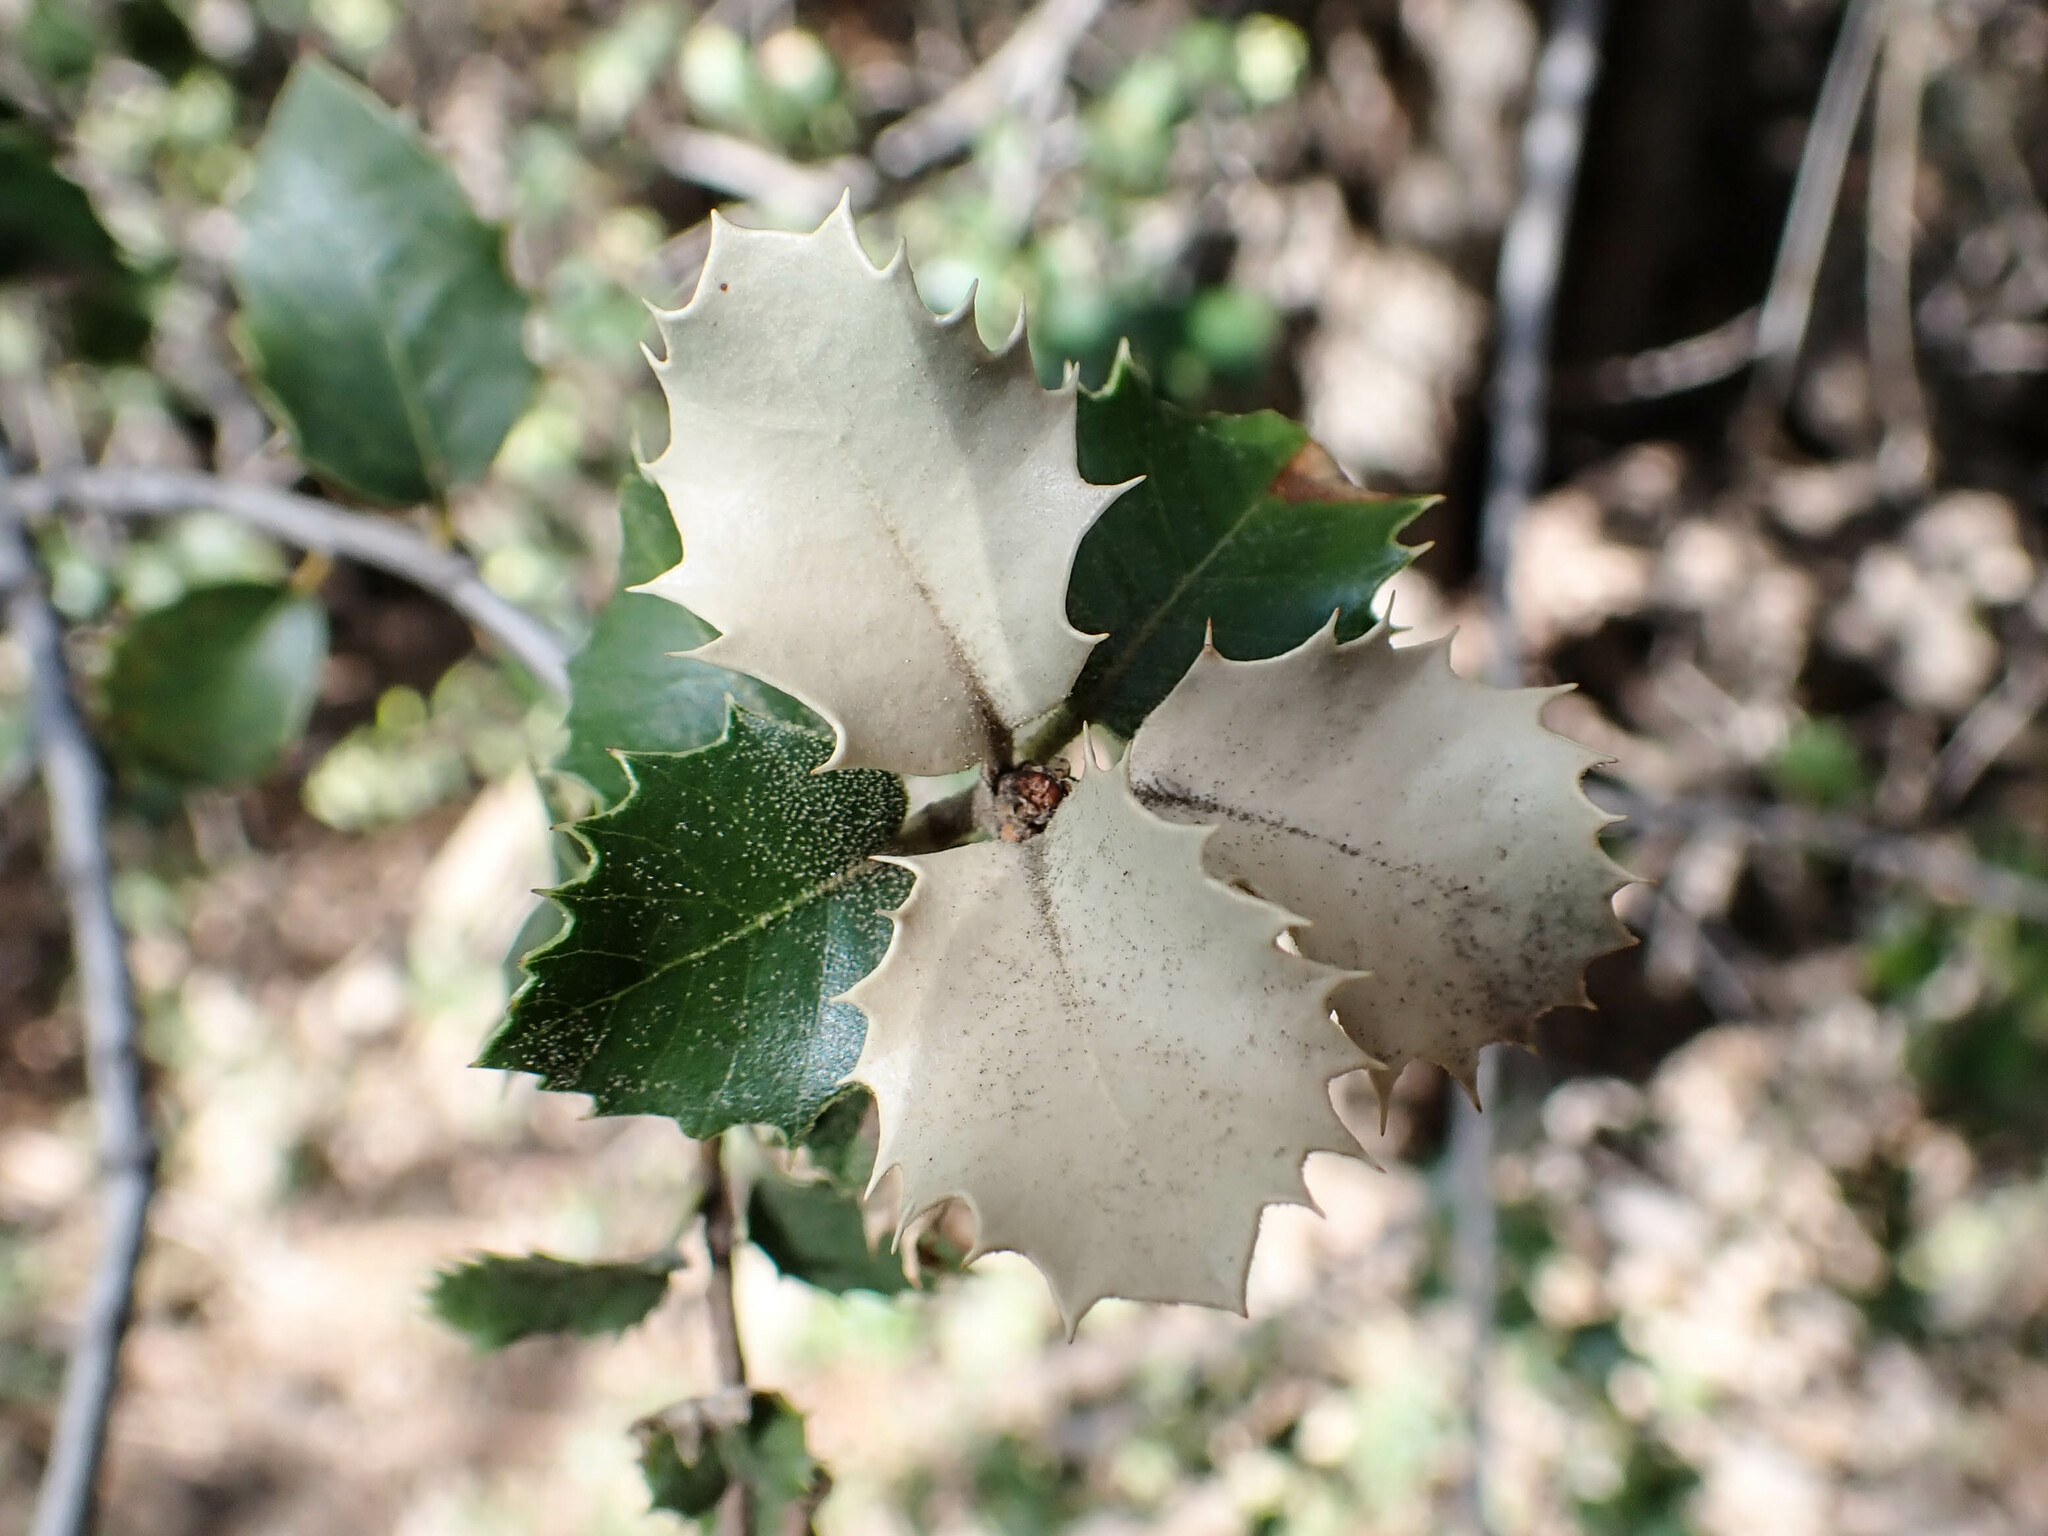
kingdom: Plantae
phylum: Tracheophyta
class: Magnoliopsida
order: Fagales
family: Fagaceae
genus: Quercus
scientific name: Quercus chrysolepis
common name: Canyon live oak
